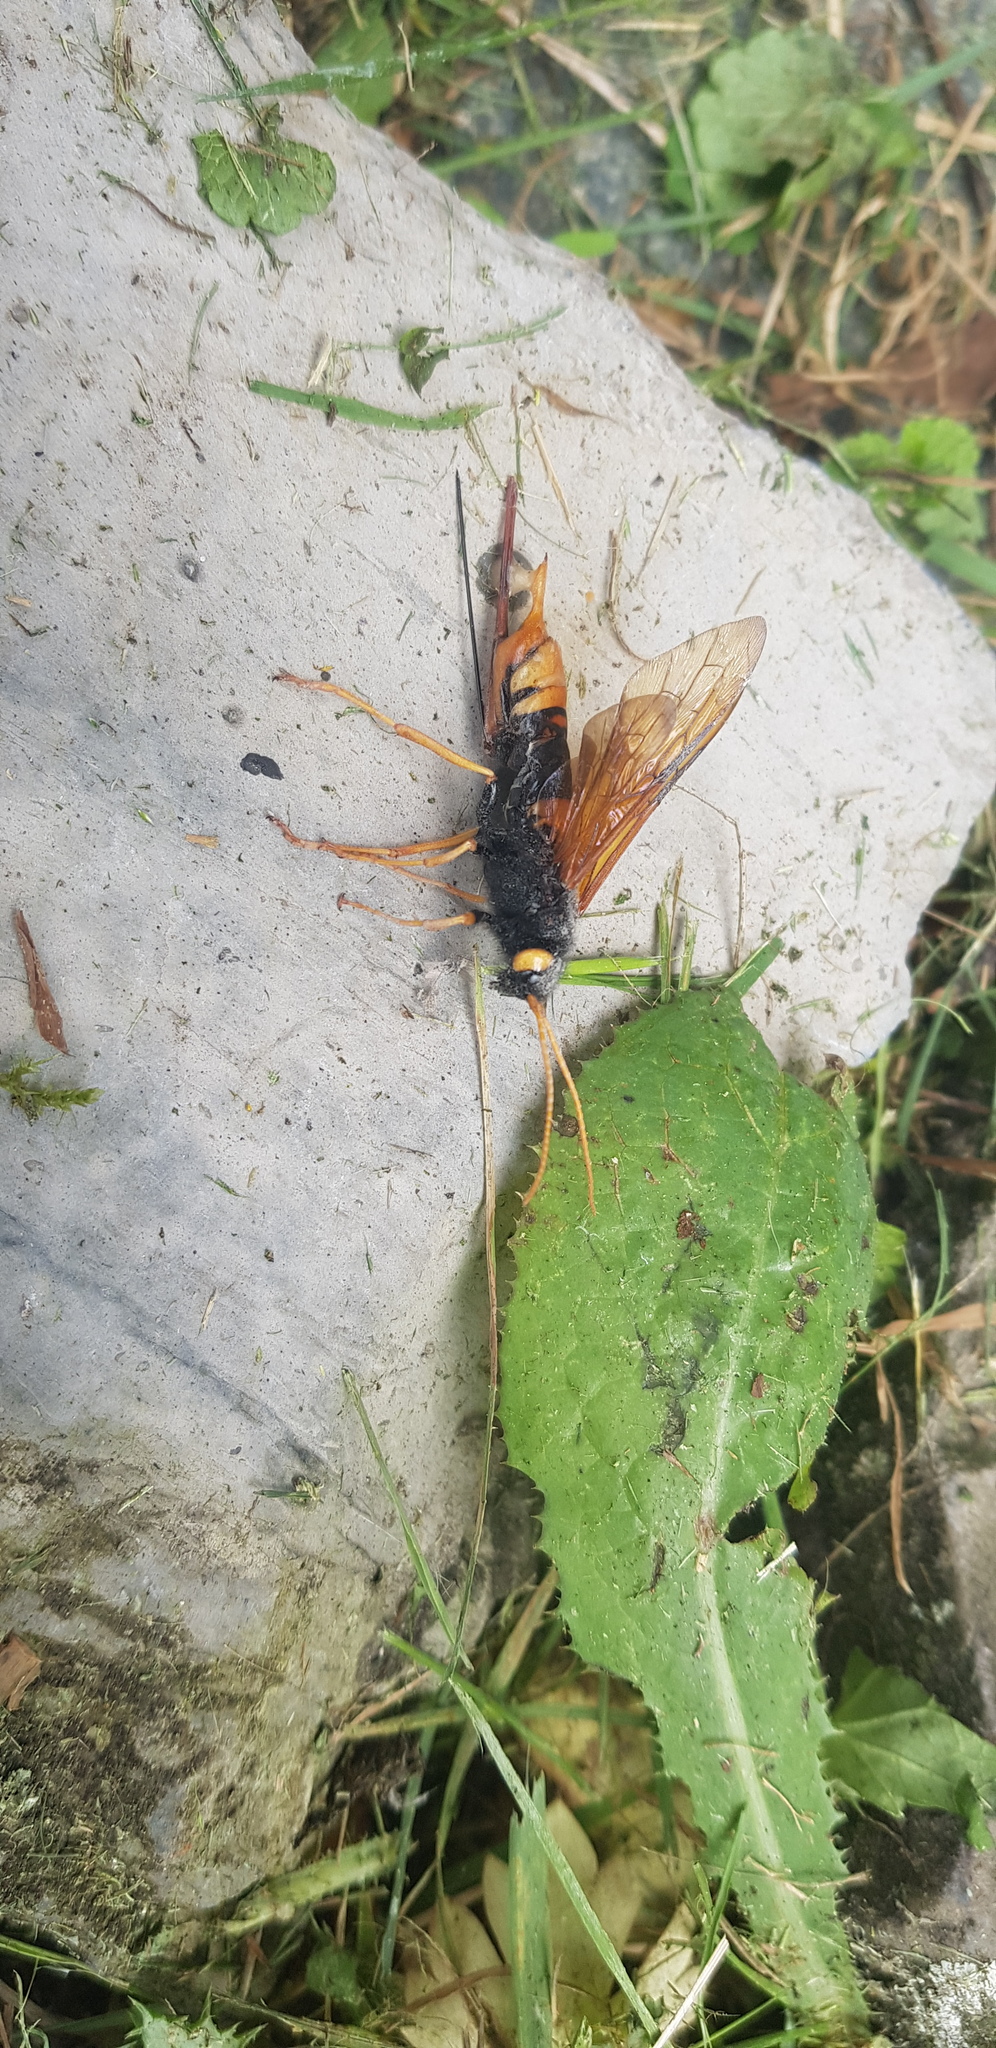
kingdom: Animalia
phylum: Arthropoda
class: Insecta
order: Hymenoptera
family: Siricidae
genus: Urocerus
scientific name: Urocerus gigas
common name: Giant woodwasp
